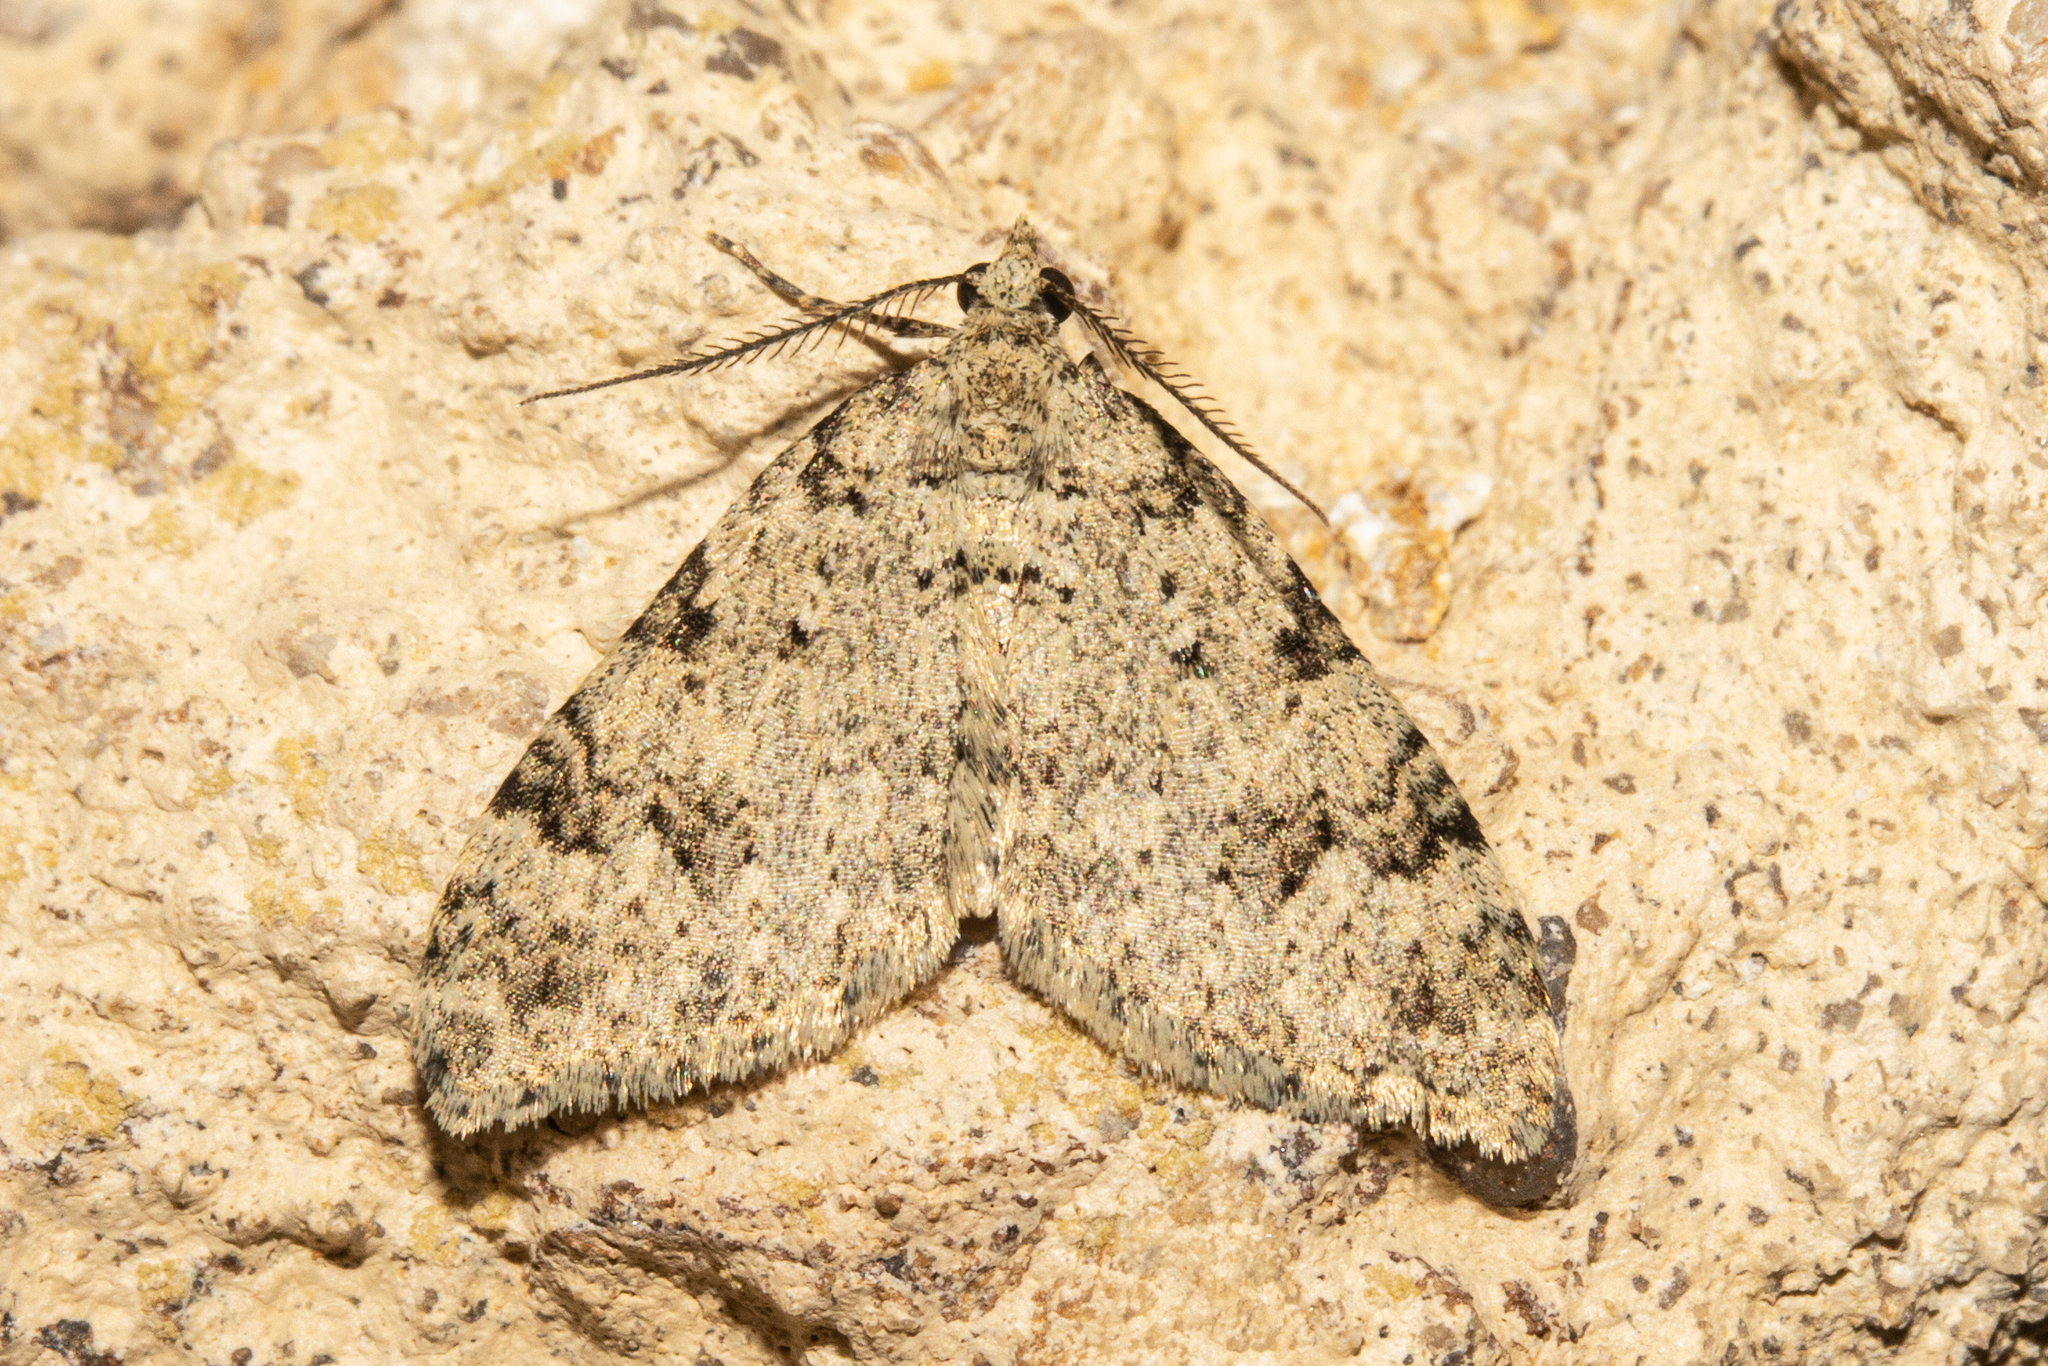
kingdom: Animalia
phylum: Arthropoda
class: Insecta
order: Lepidoptera
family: Geometridae
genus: Helastia
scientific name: Helastia cinerearia
